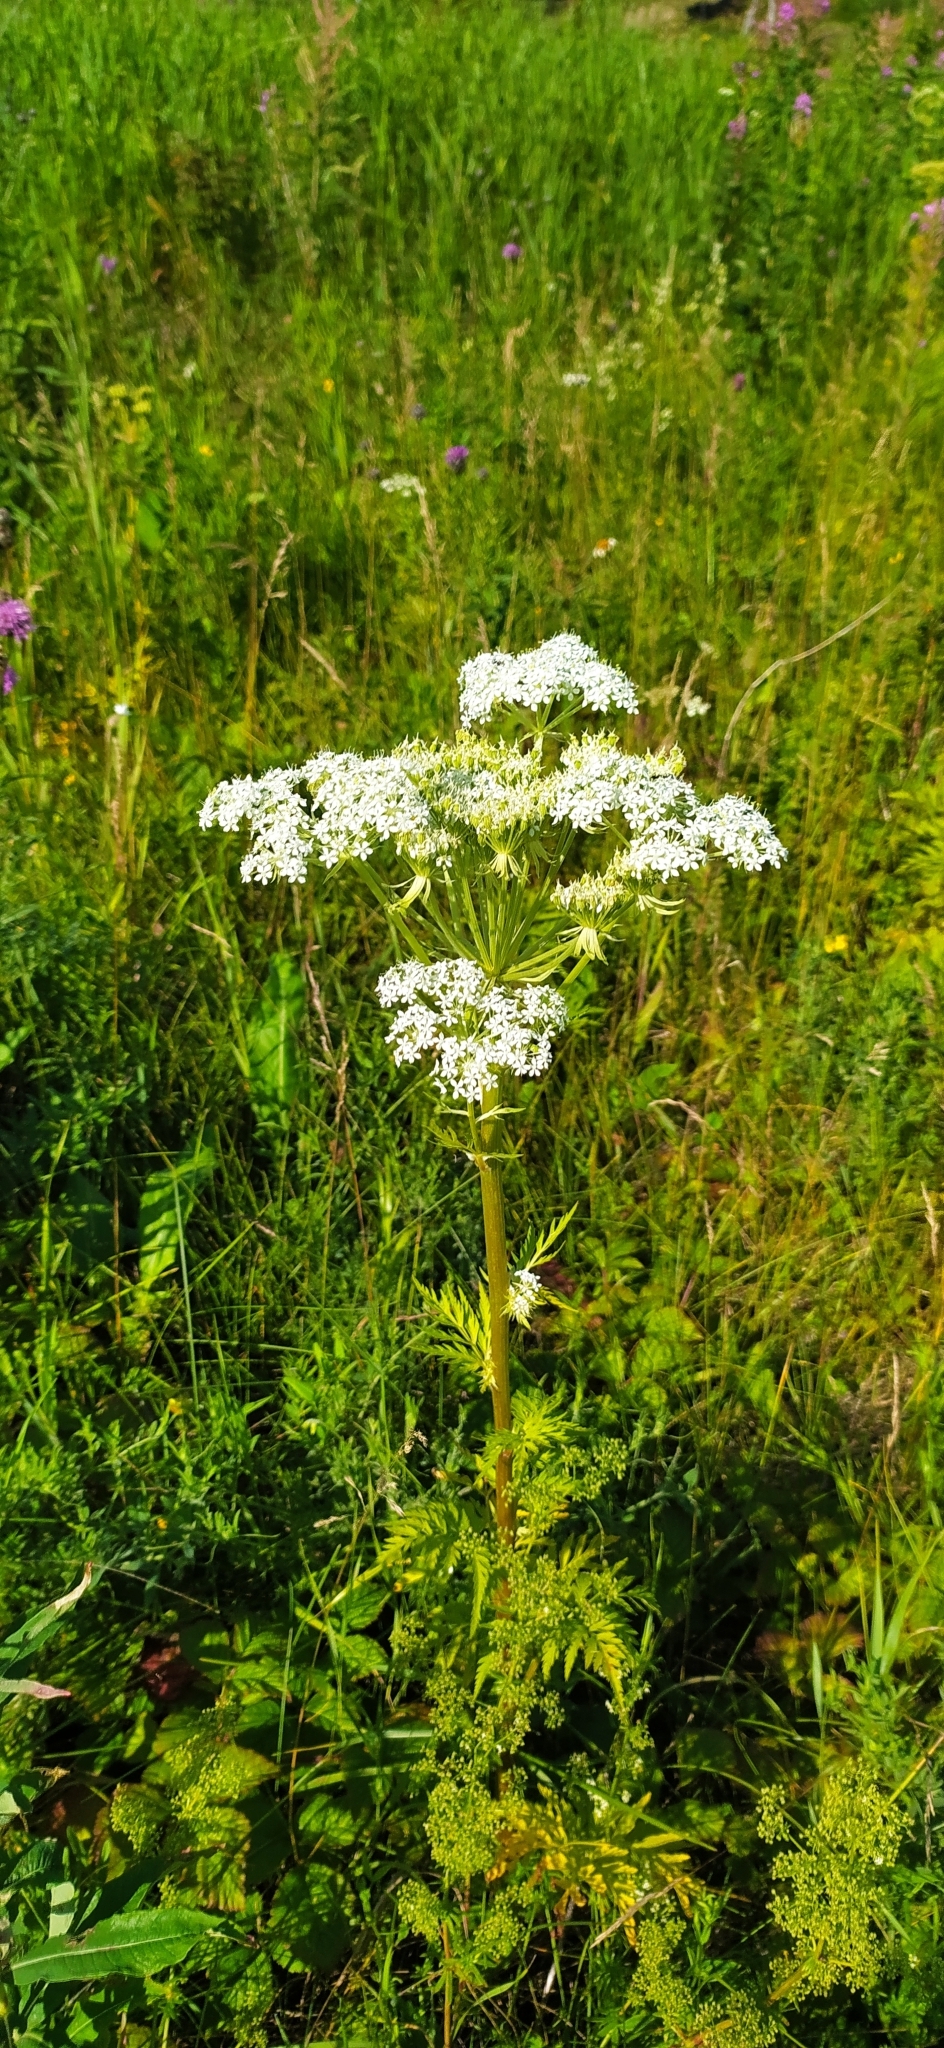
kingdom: Plantae
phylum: Tracheophyta
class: Magnoliopsida
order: Apiales
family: Apiaceae
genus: Pleurospermum
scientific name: Pleurospermum uralense
